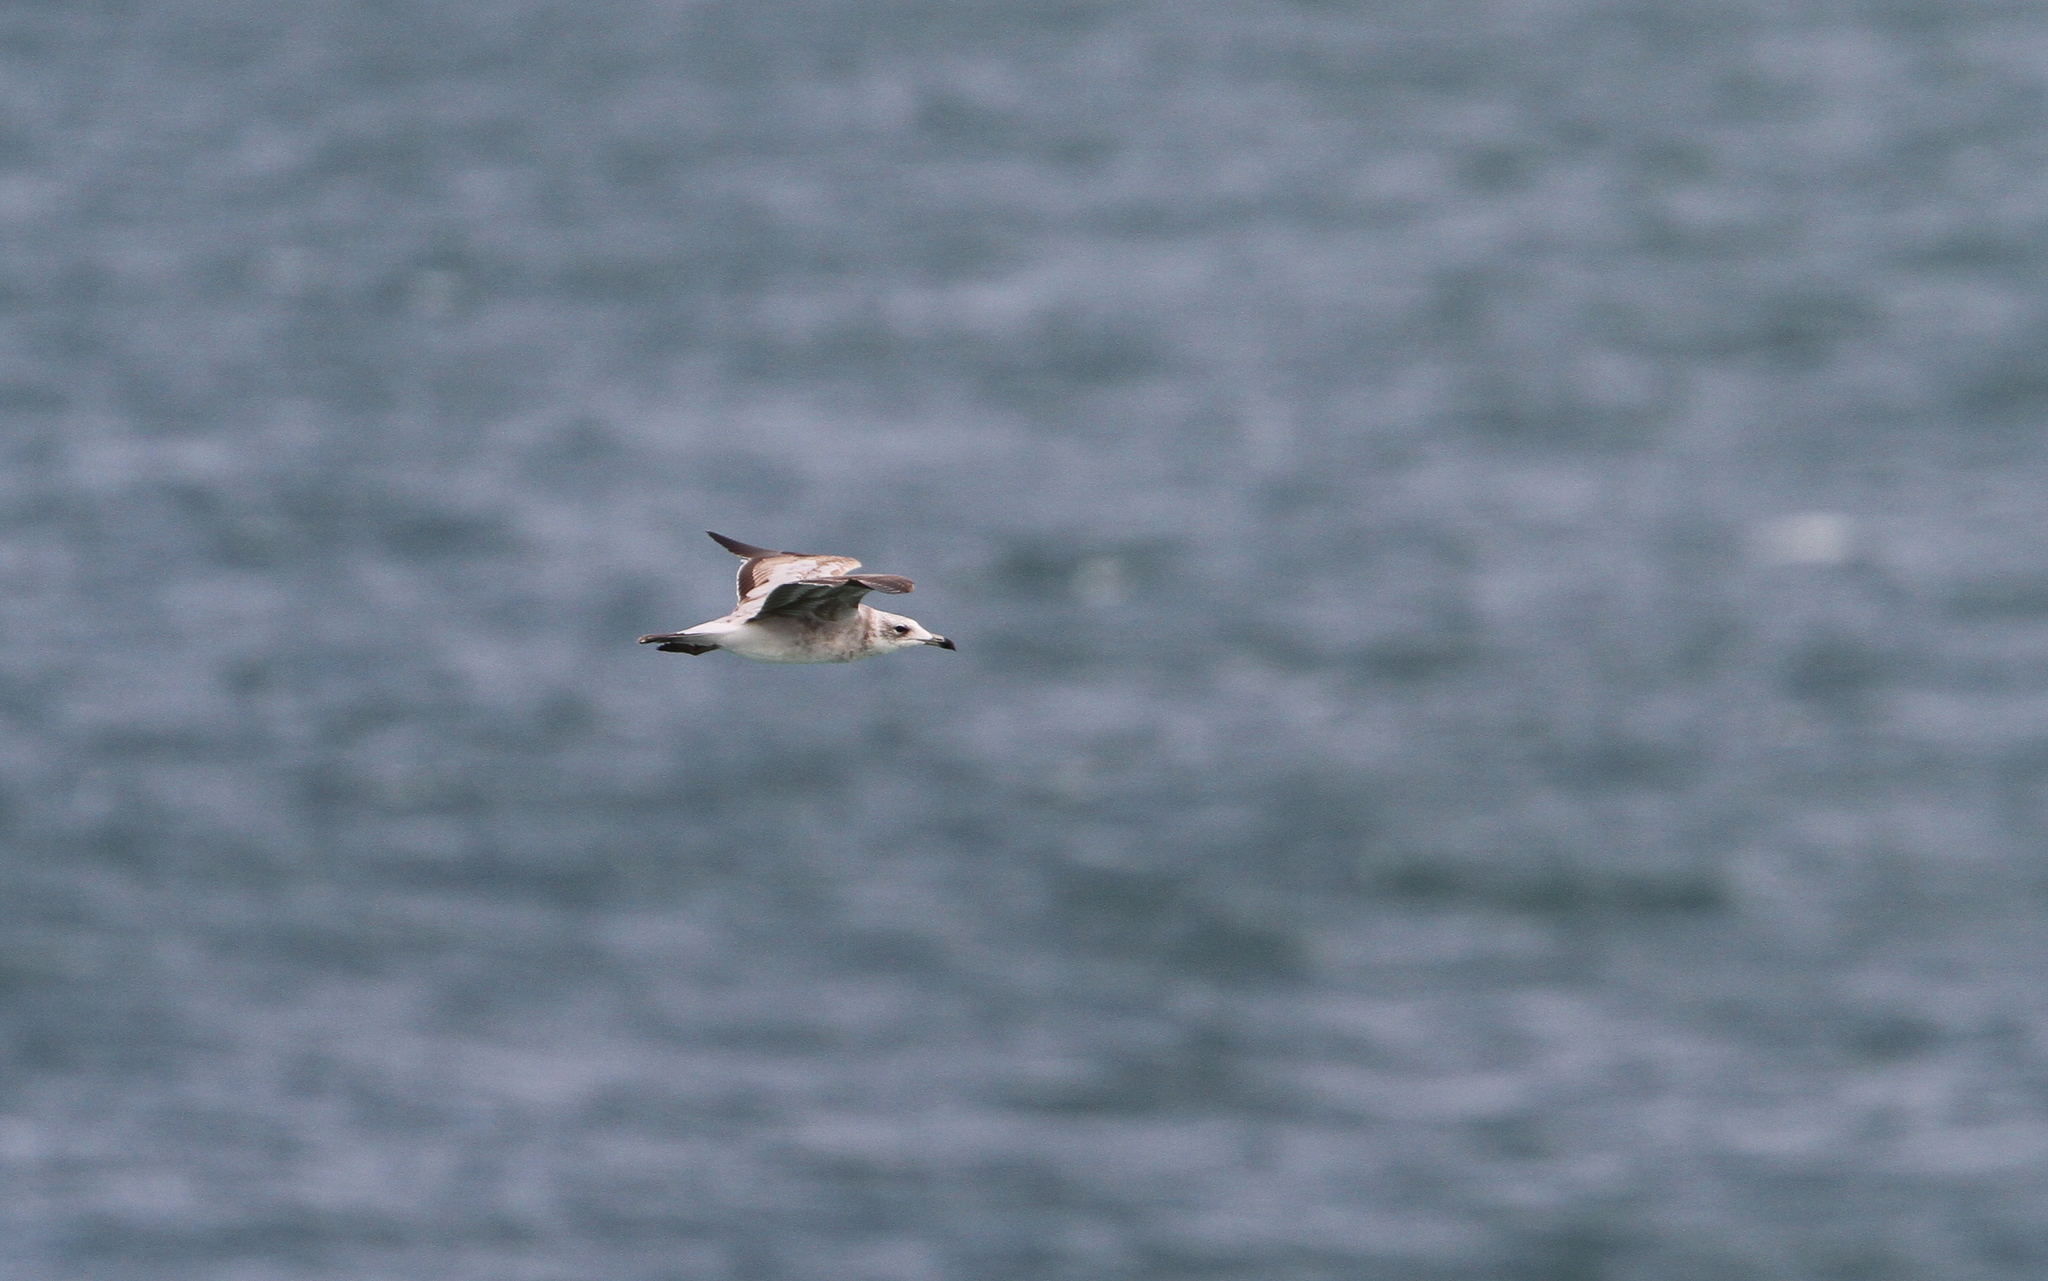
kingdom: Animalia
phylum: Chordata
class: Aves
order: Charadriiformes
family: Laridae
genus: Ichthyaetus
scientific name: Ichthyaetus audouinii
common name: Audouin's gull
